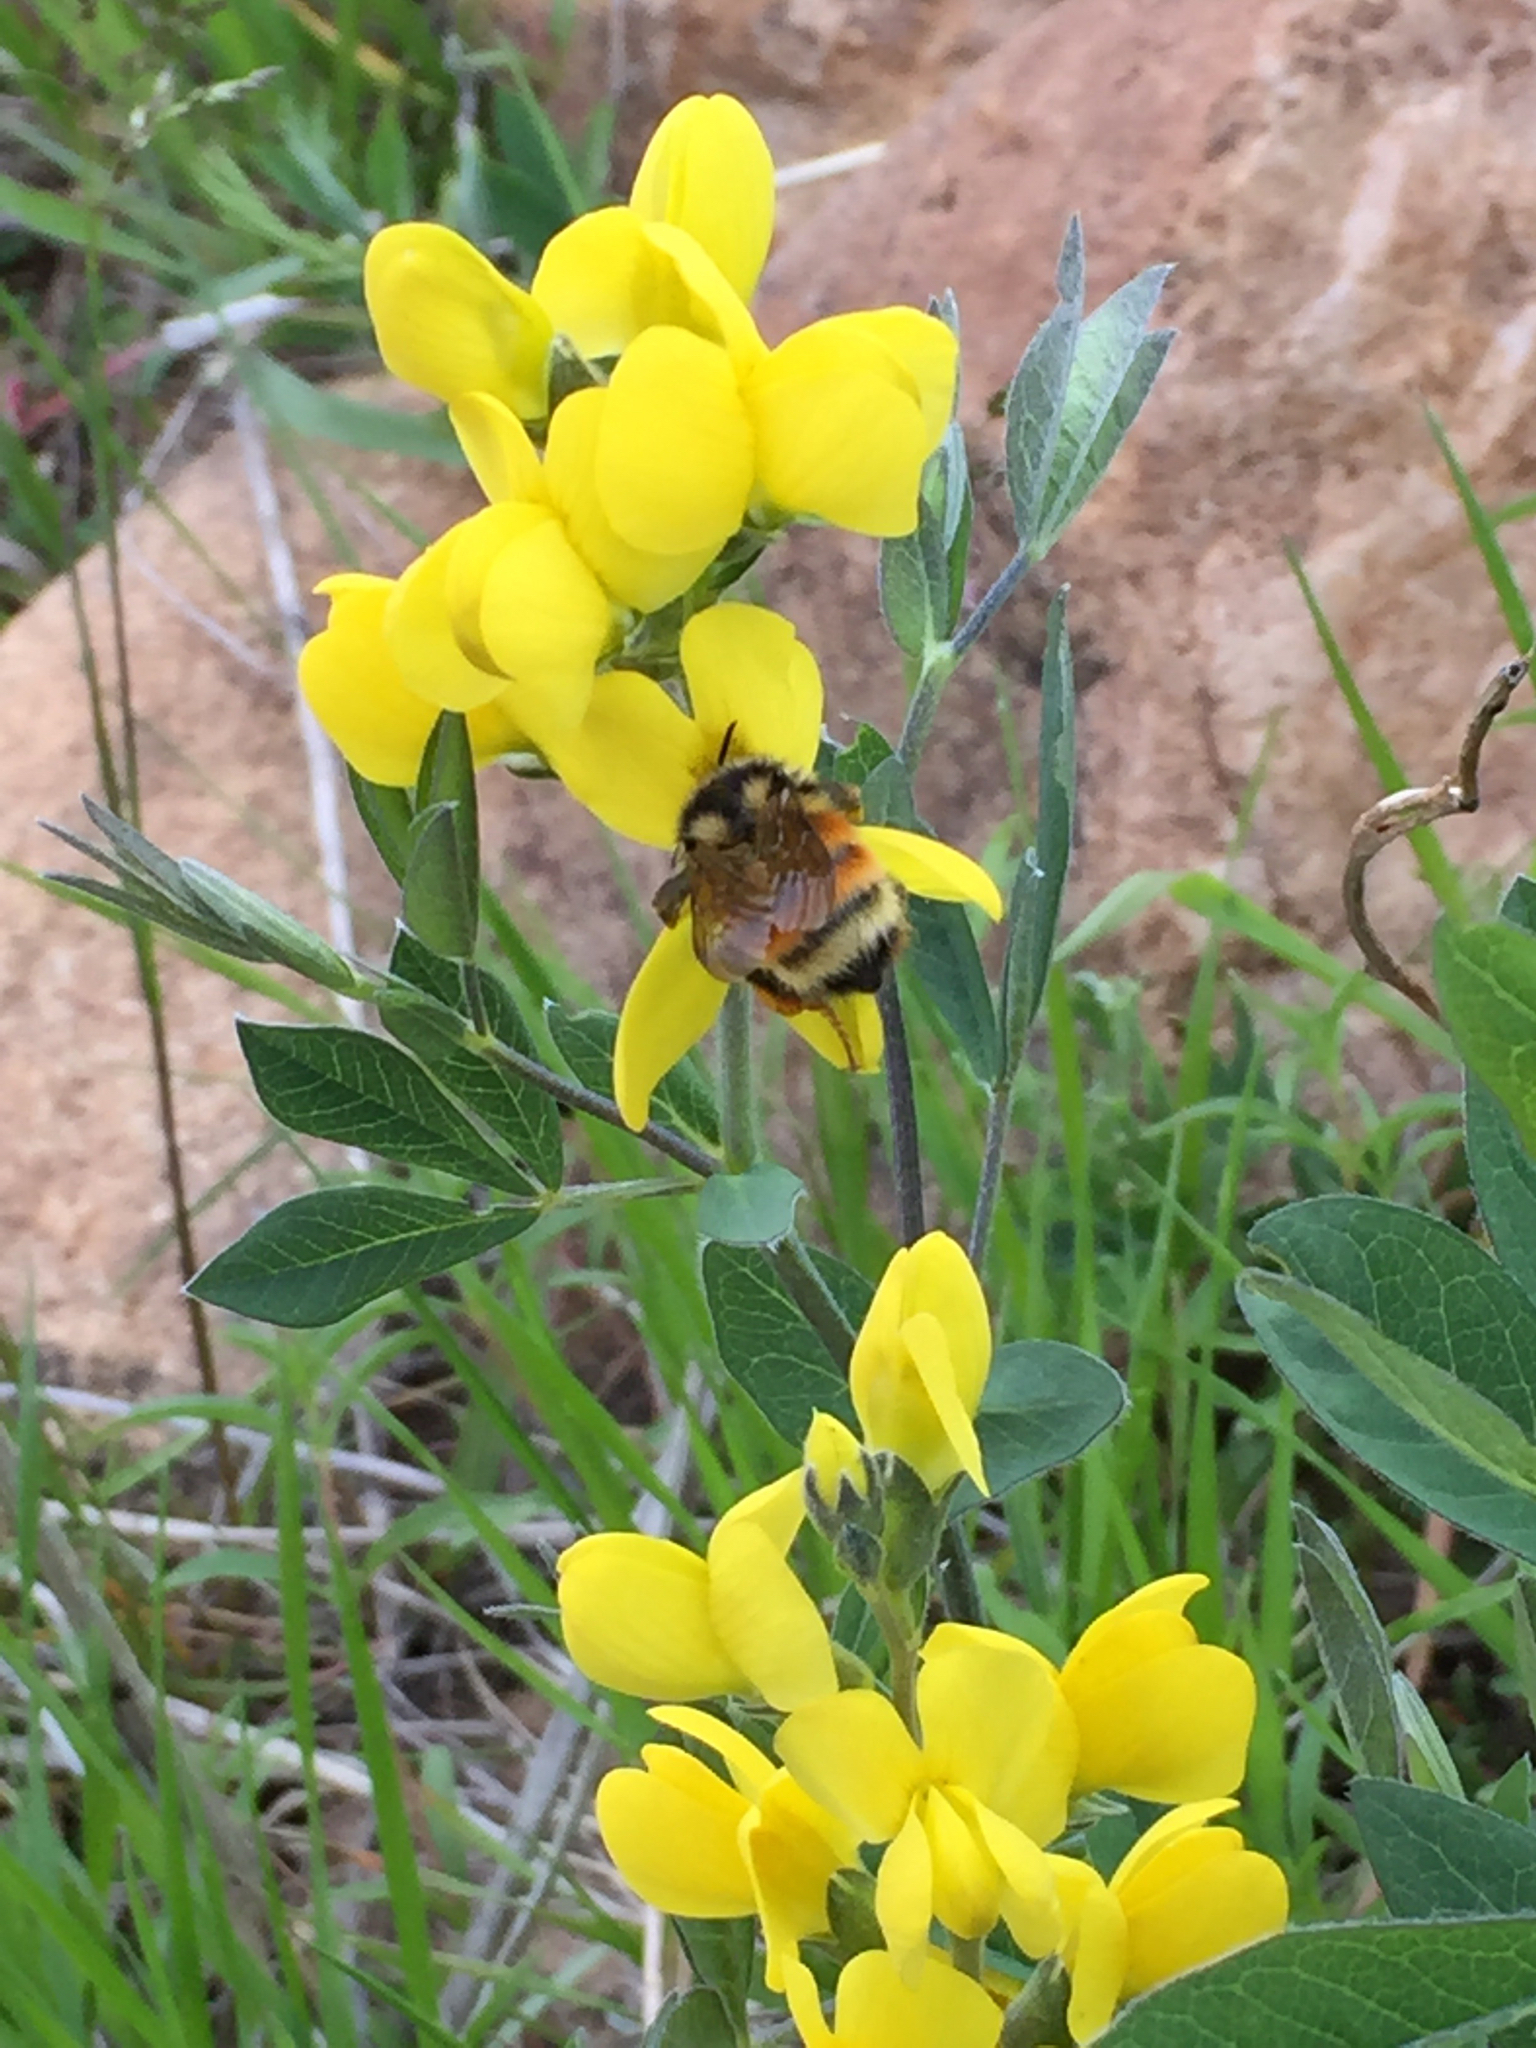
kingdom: Animalia
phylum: Arthropoda
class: Insecta
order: Hymenoptera
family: Apidae
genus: Bombus
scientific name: Bombus
